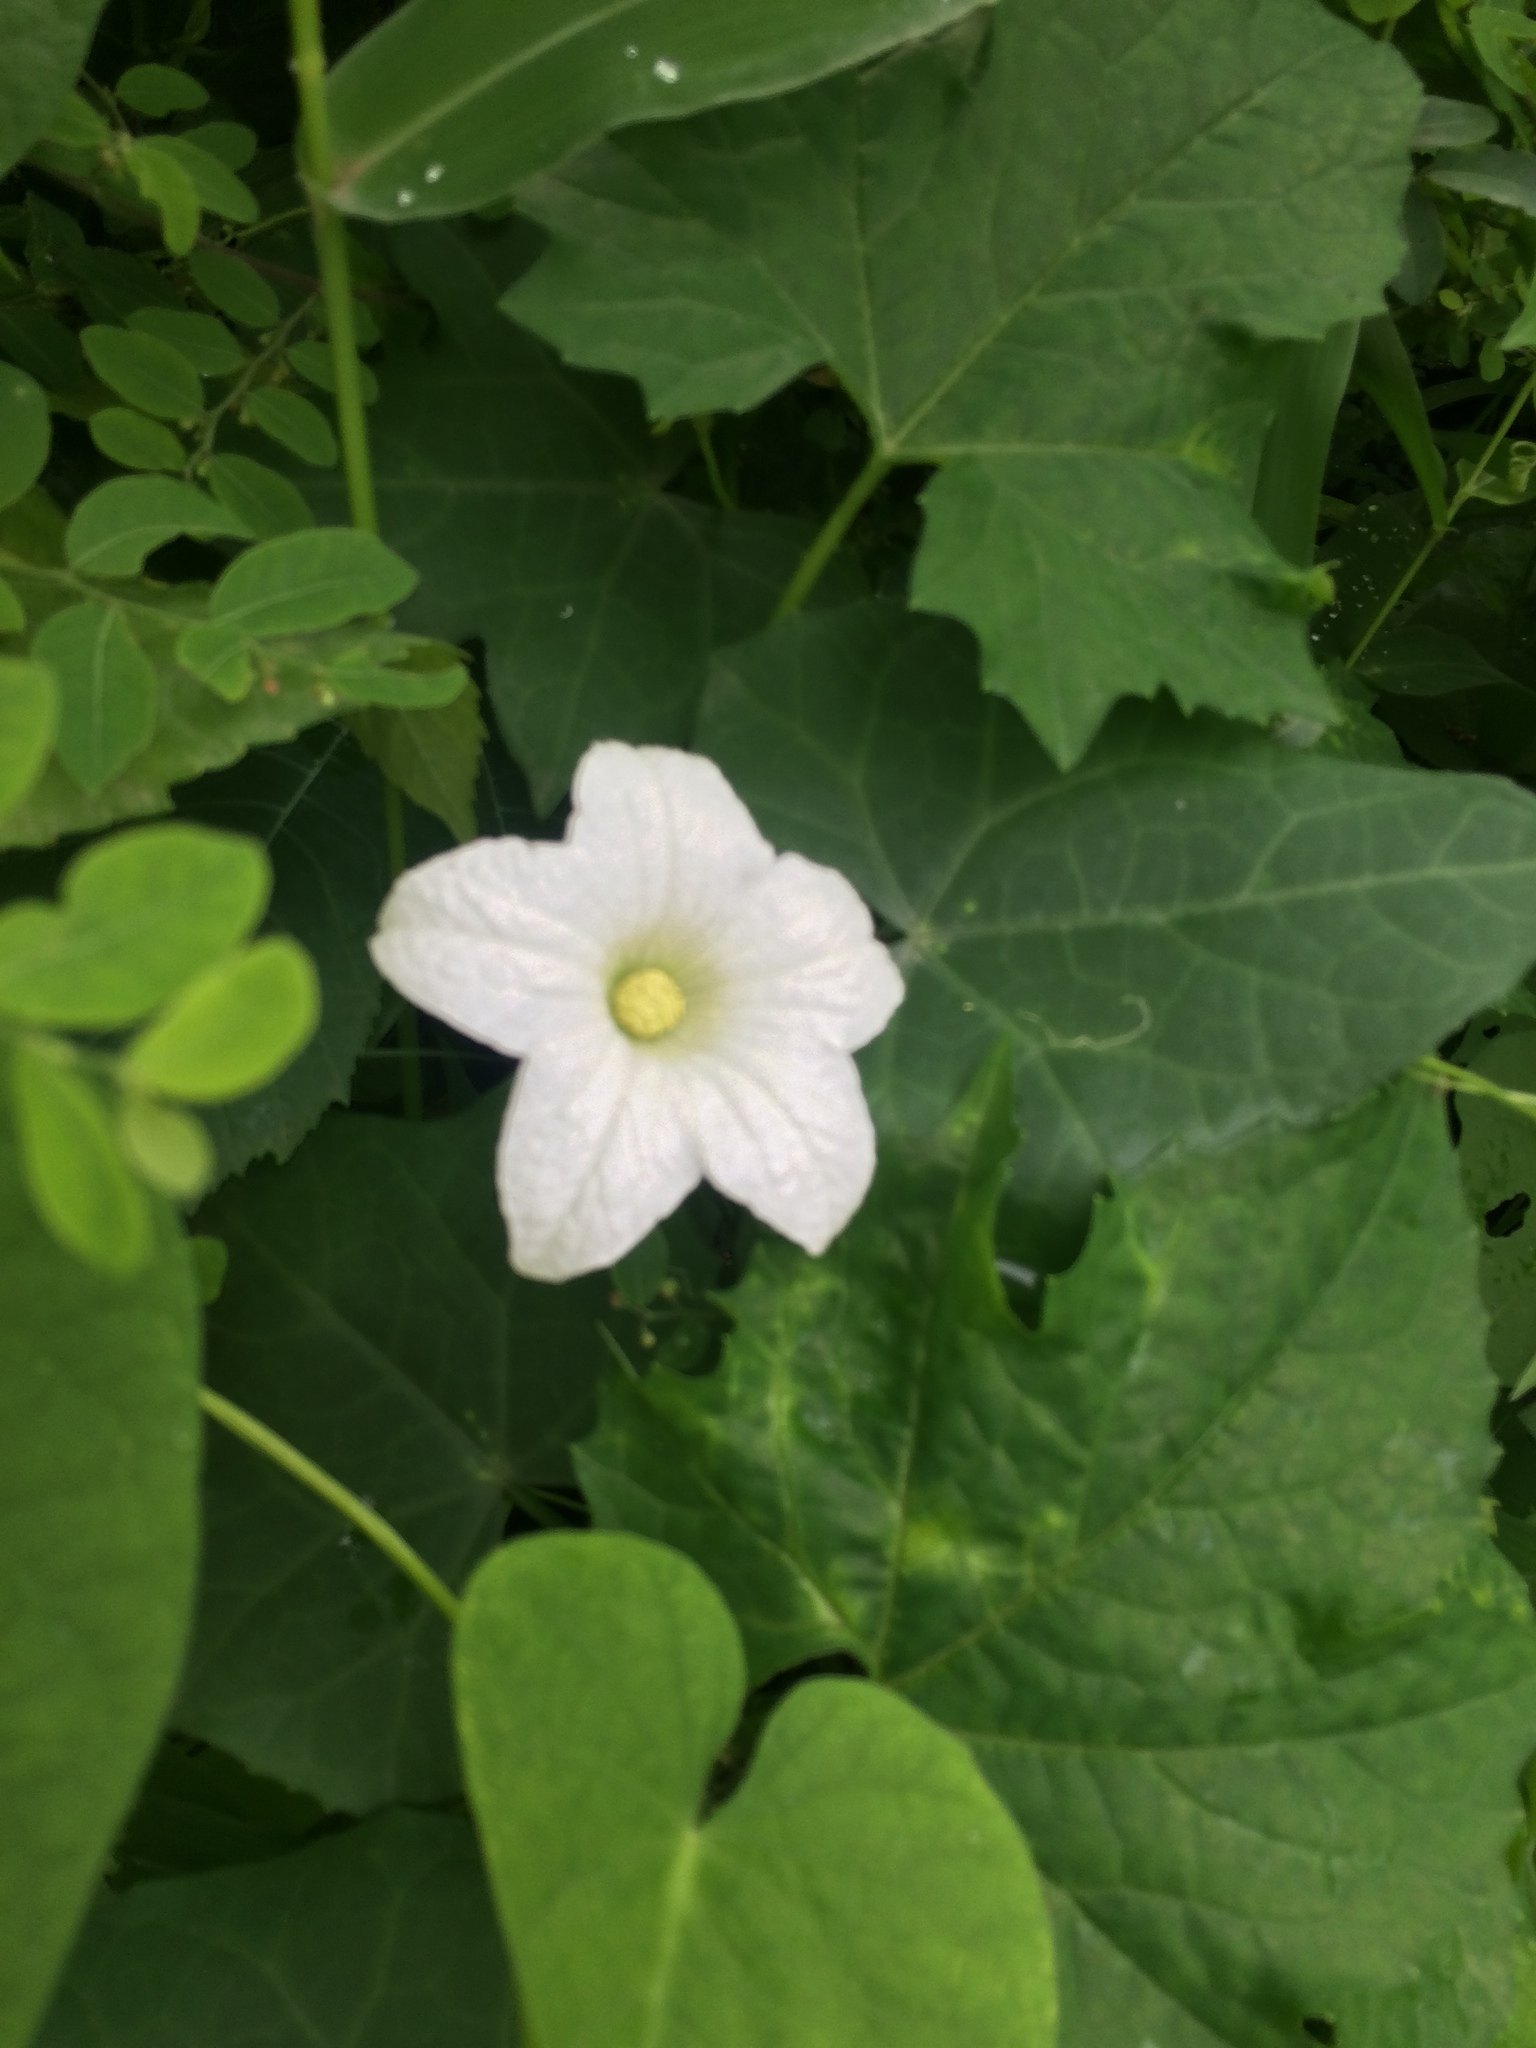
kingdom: Plantae
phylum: Tracheophyta
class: Magnoliopsida
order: Cucurbitales
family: Cucurbitaceae
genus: Coccinia
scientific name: Coccinia grandis
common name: Ivy gourd
